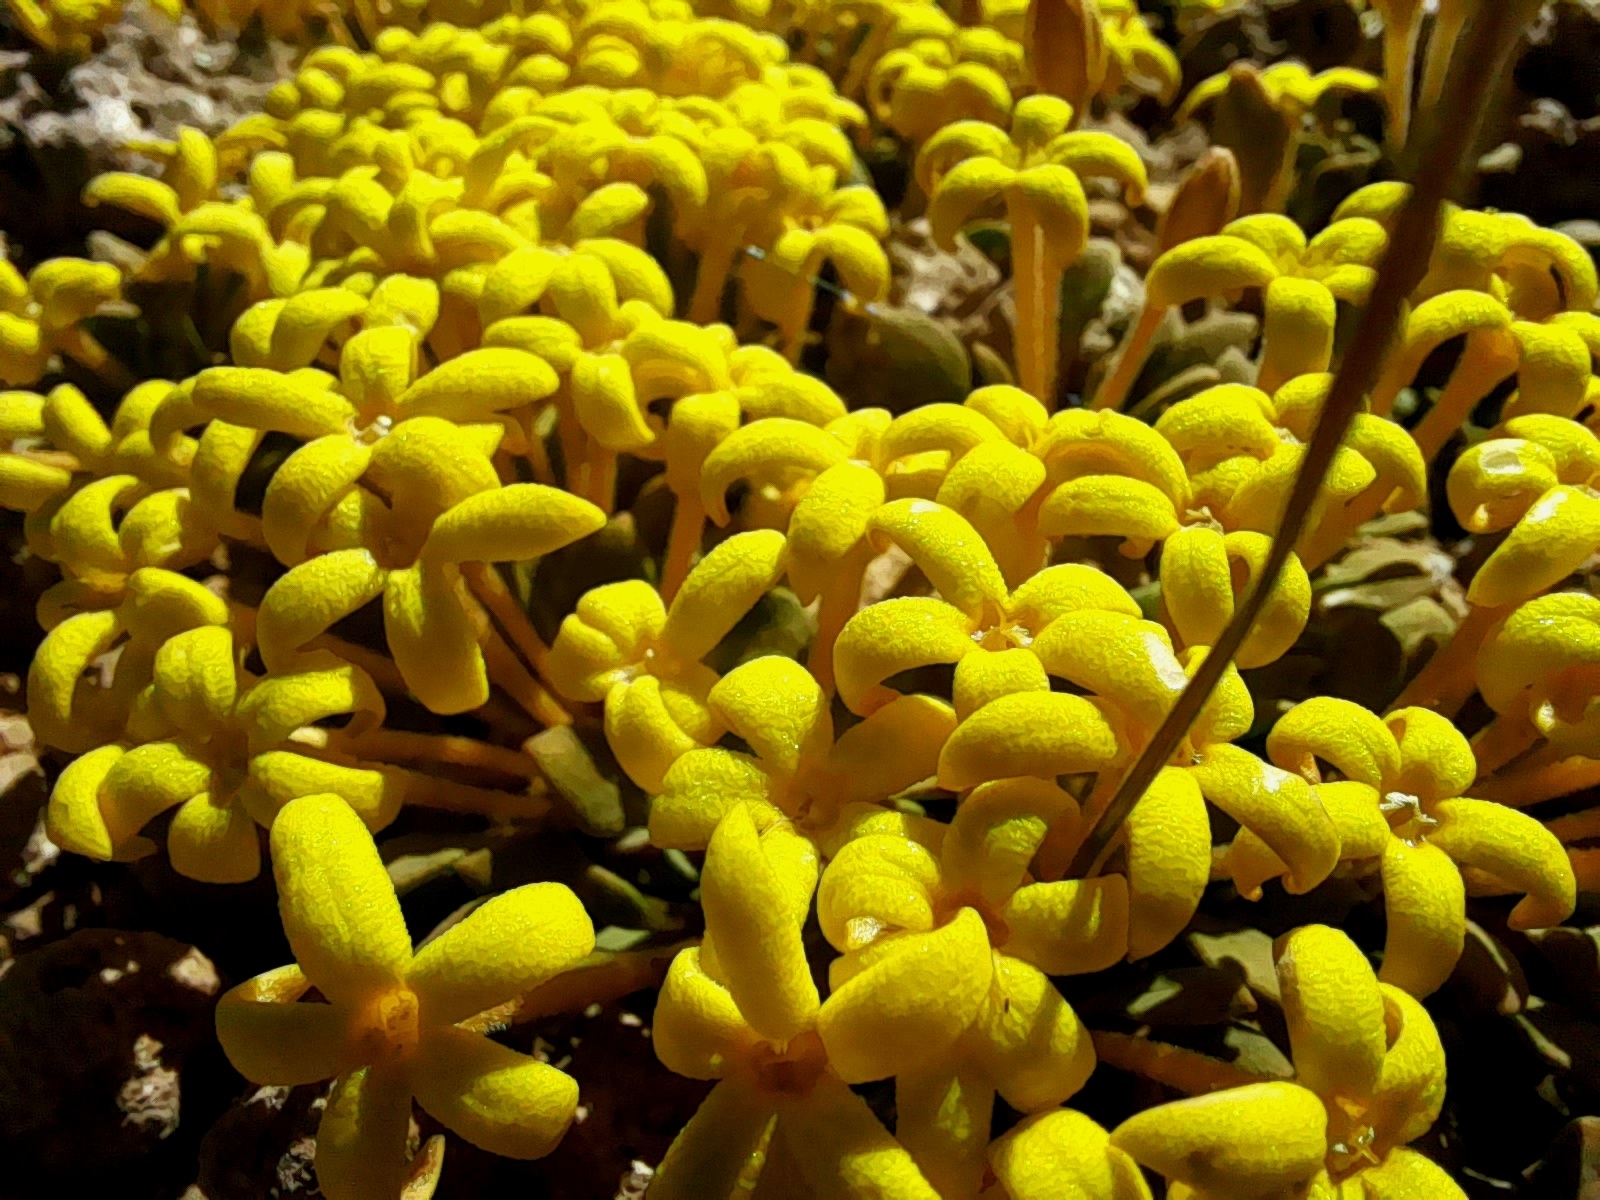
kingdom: Plantae
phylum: Tracheophyta
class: Magnoliopsida
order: Gentianales
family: Rubiaceae
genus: Oreopolus
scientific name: Oreopolus glacialis
